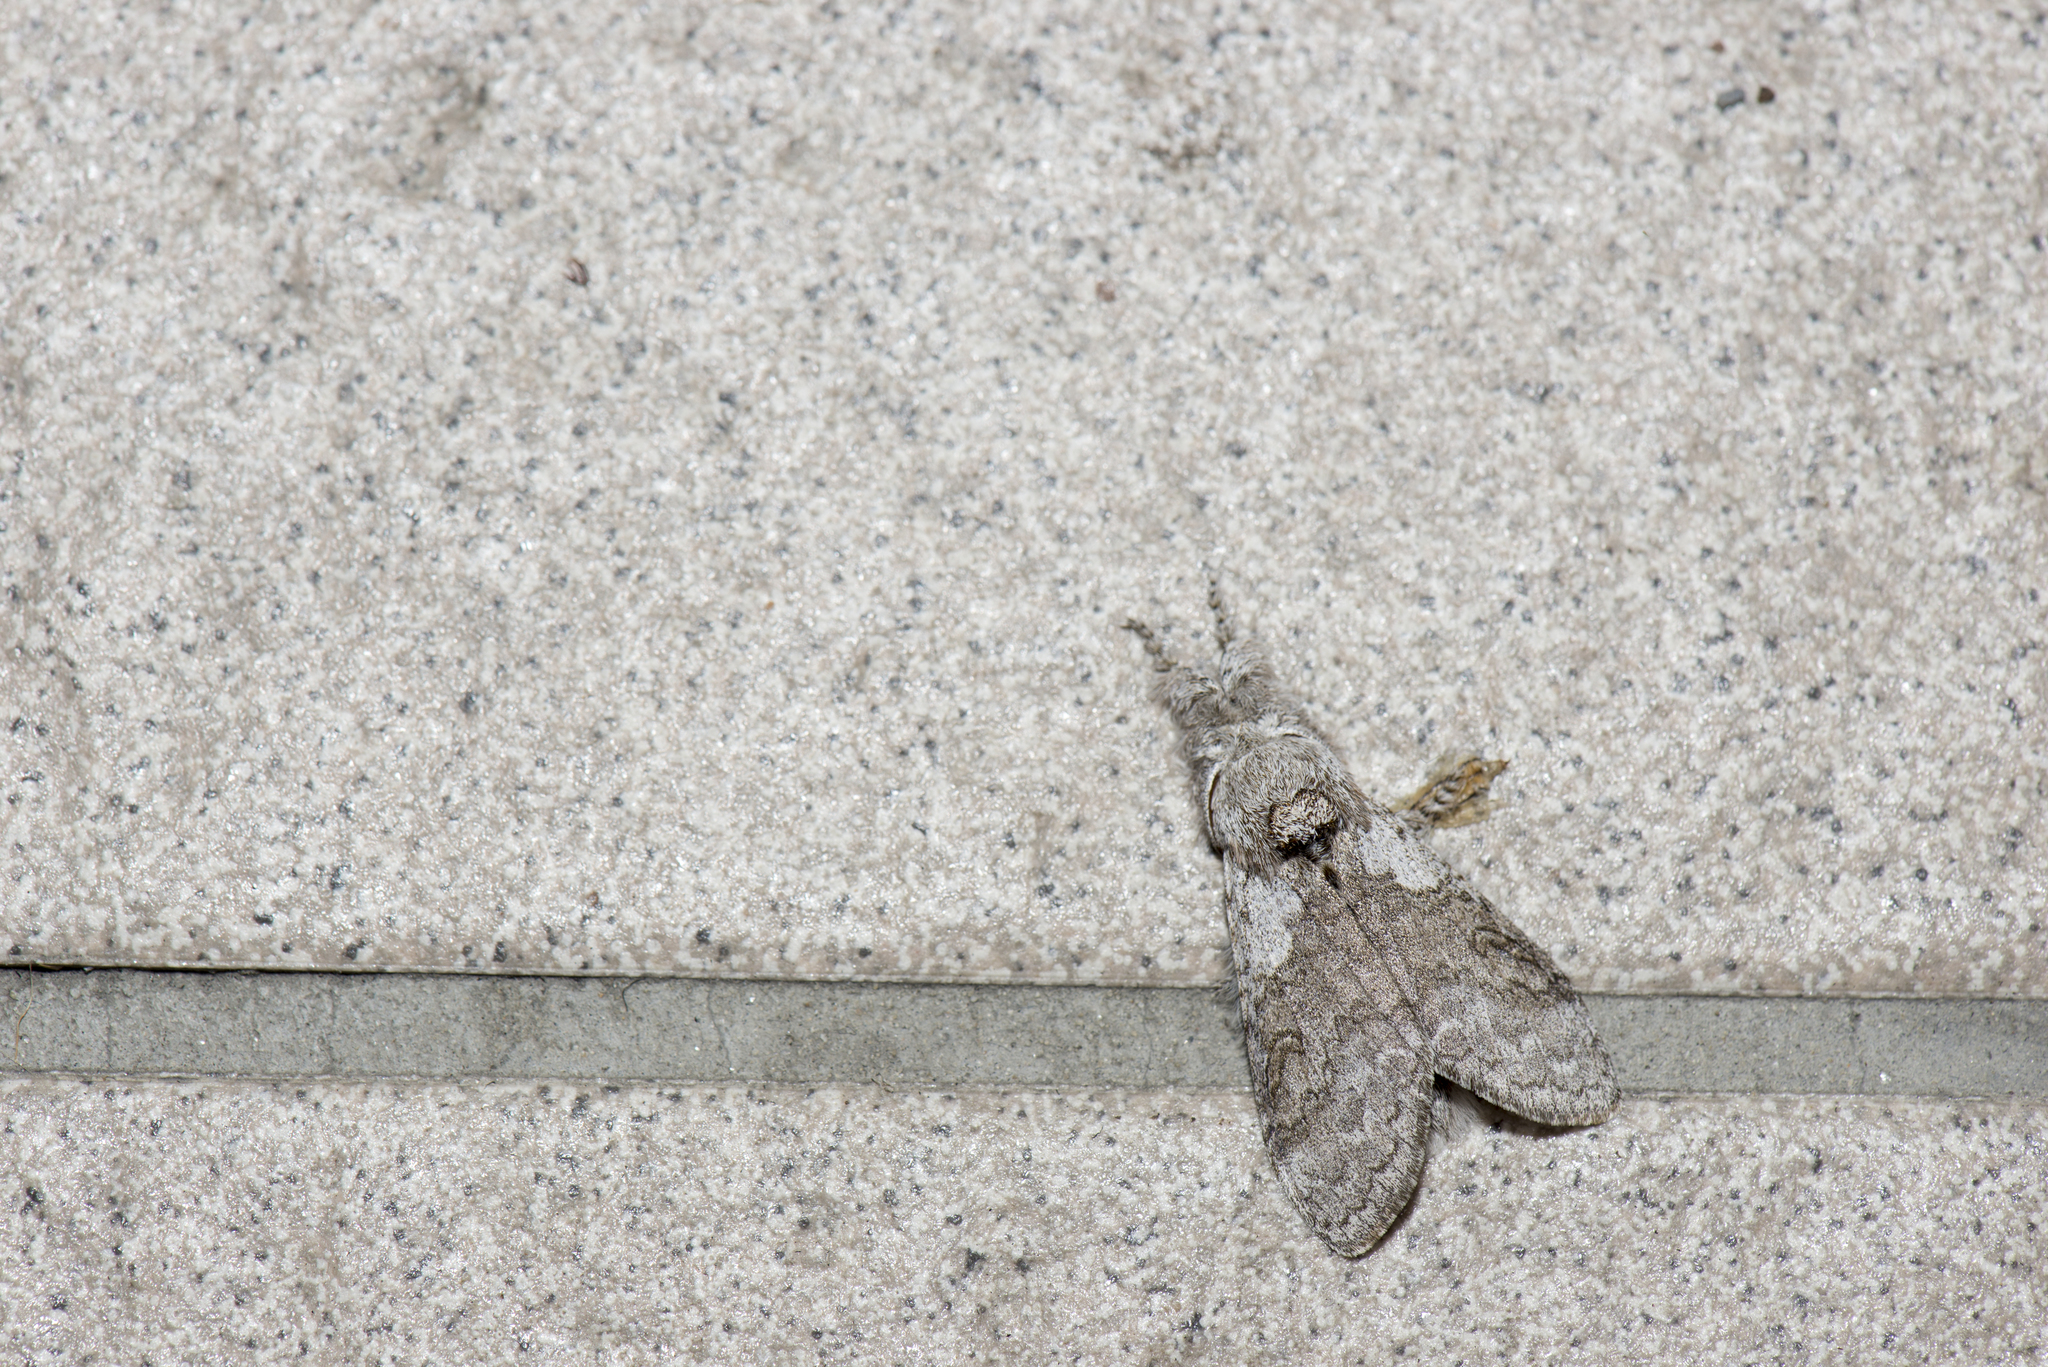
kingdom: Animalia
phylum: Arthropoda
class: Insecta
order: Lepidoptera
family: Erebidae
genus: Calliteara
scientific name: Calliteara grotei
